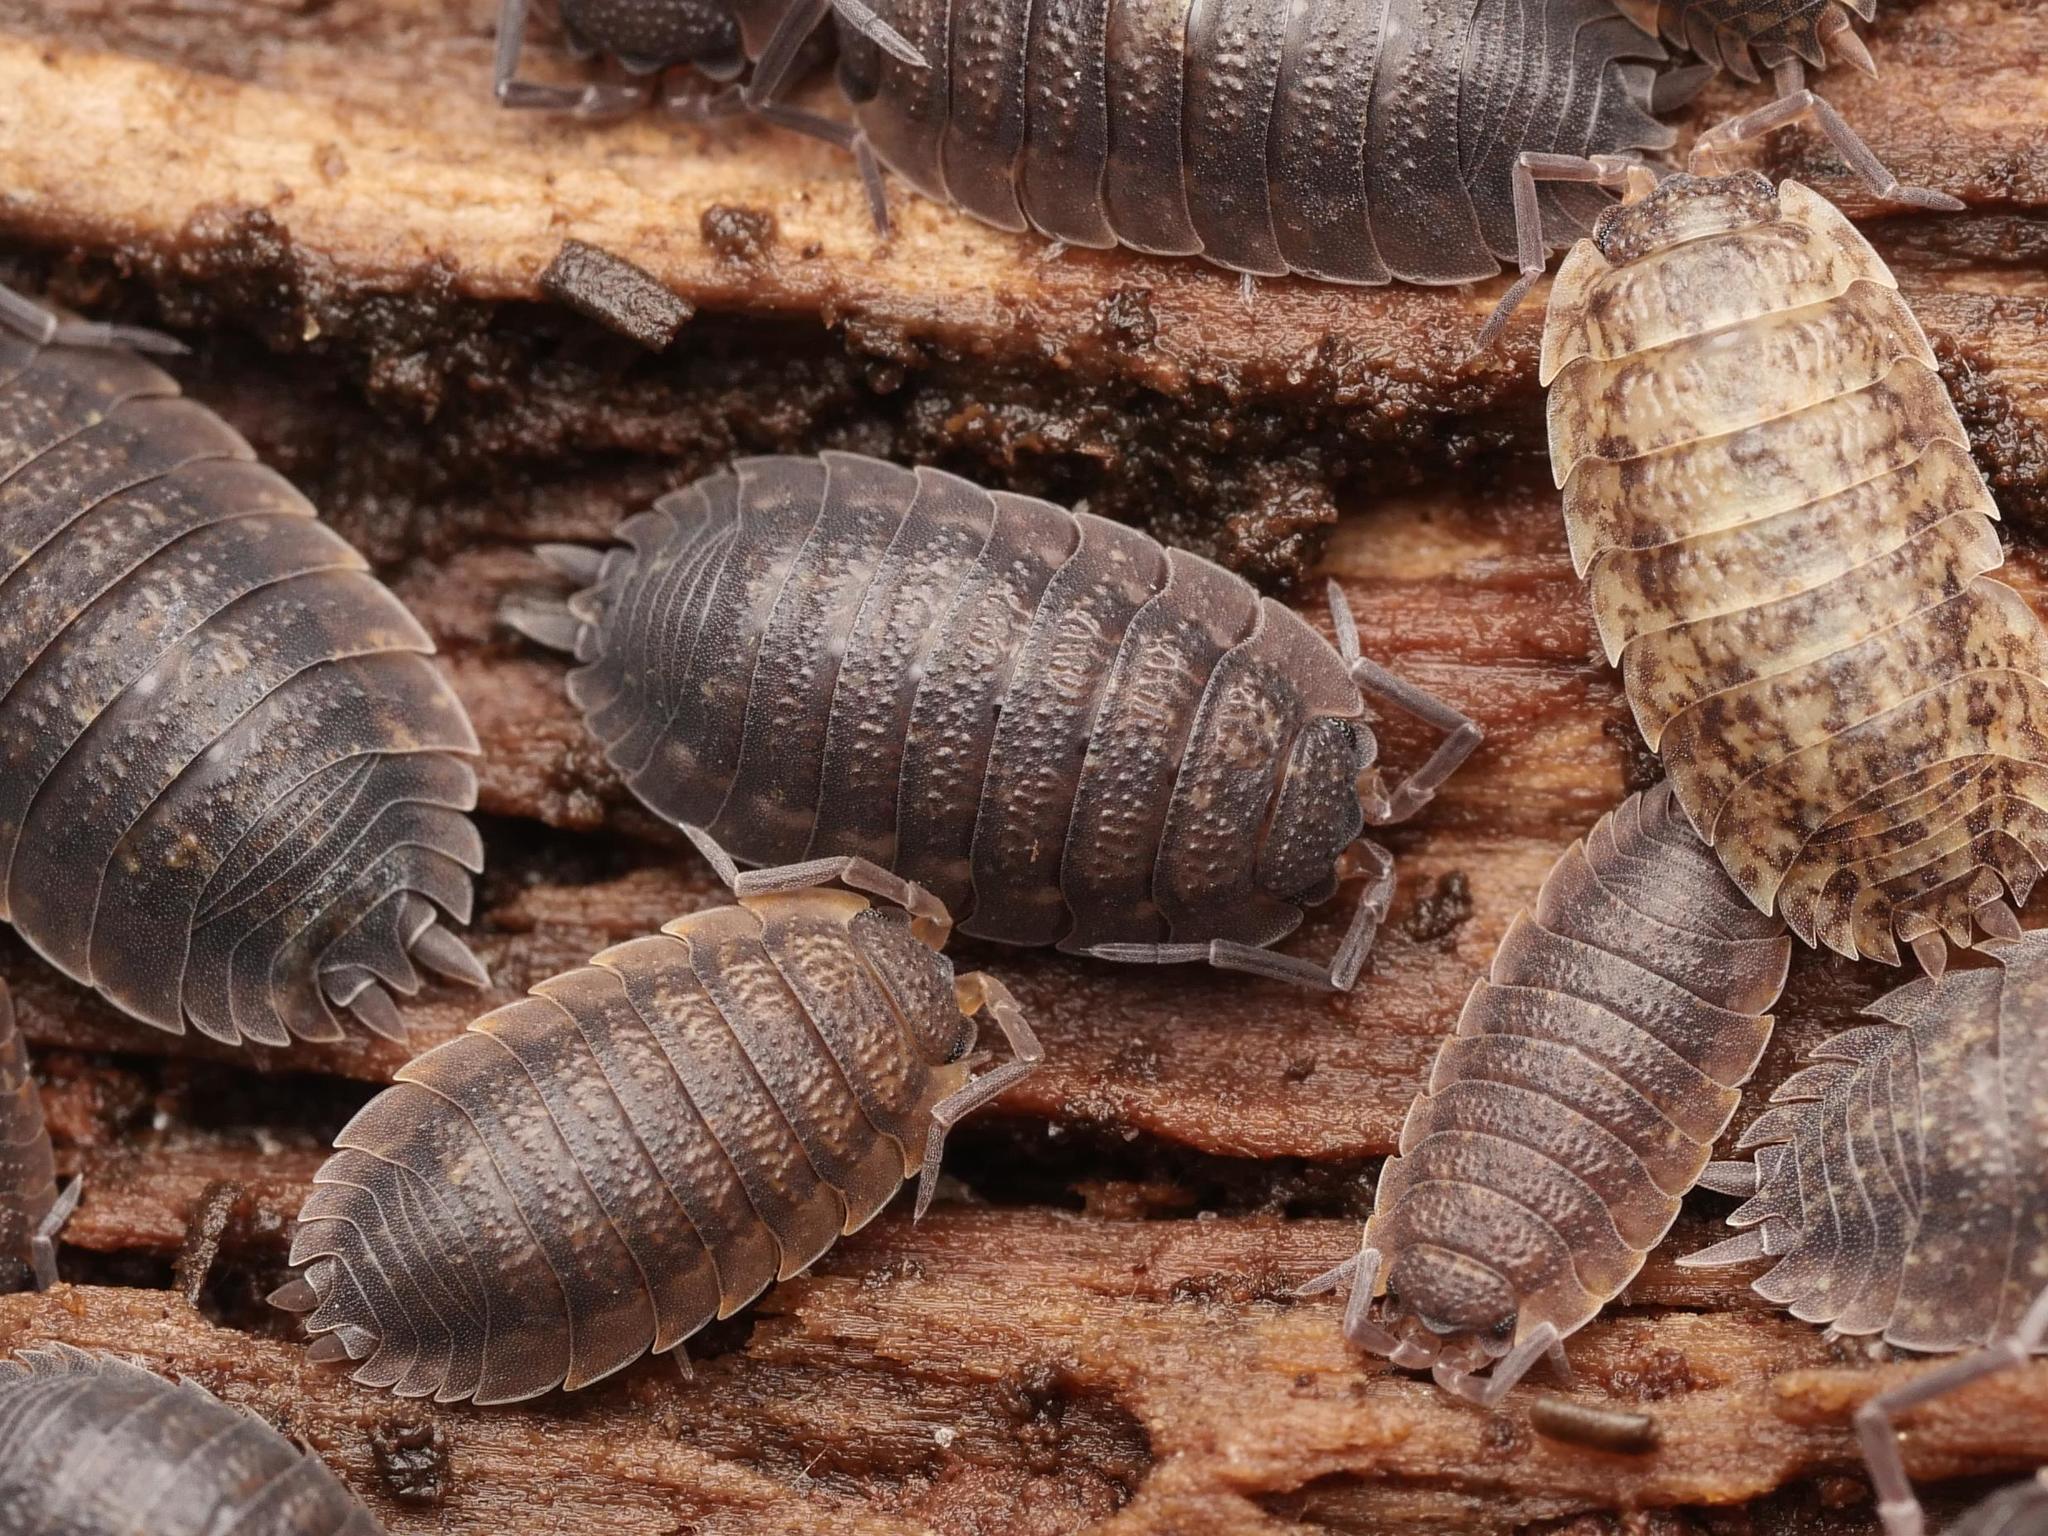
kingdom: Animalia
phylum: Arthropoda
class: Malacostraca
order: Isopoda
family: Porcellionidae
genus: Porcellio
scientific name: Porcellio scaber
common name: Common rough woodlouse
